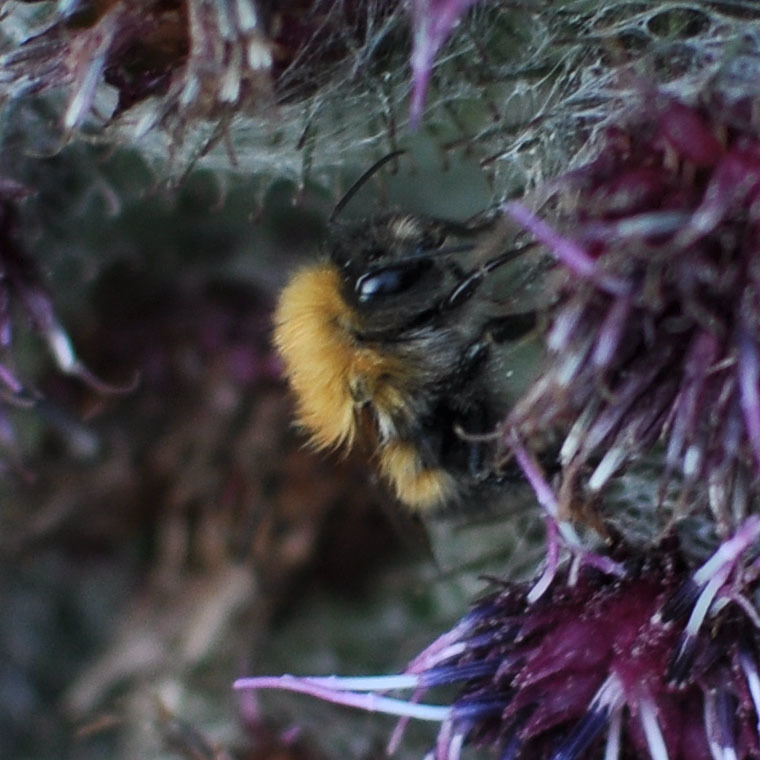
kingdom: Animalia
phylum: Arthropoda
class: Insecta
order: Hymenoptera
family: Apidae
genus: Bombus
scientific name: Bombus hypnorum
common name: New garden bumblebee
